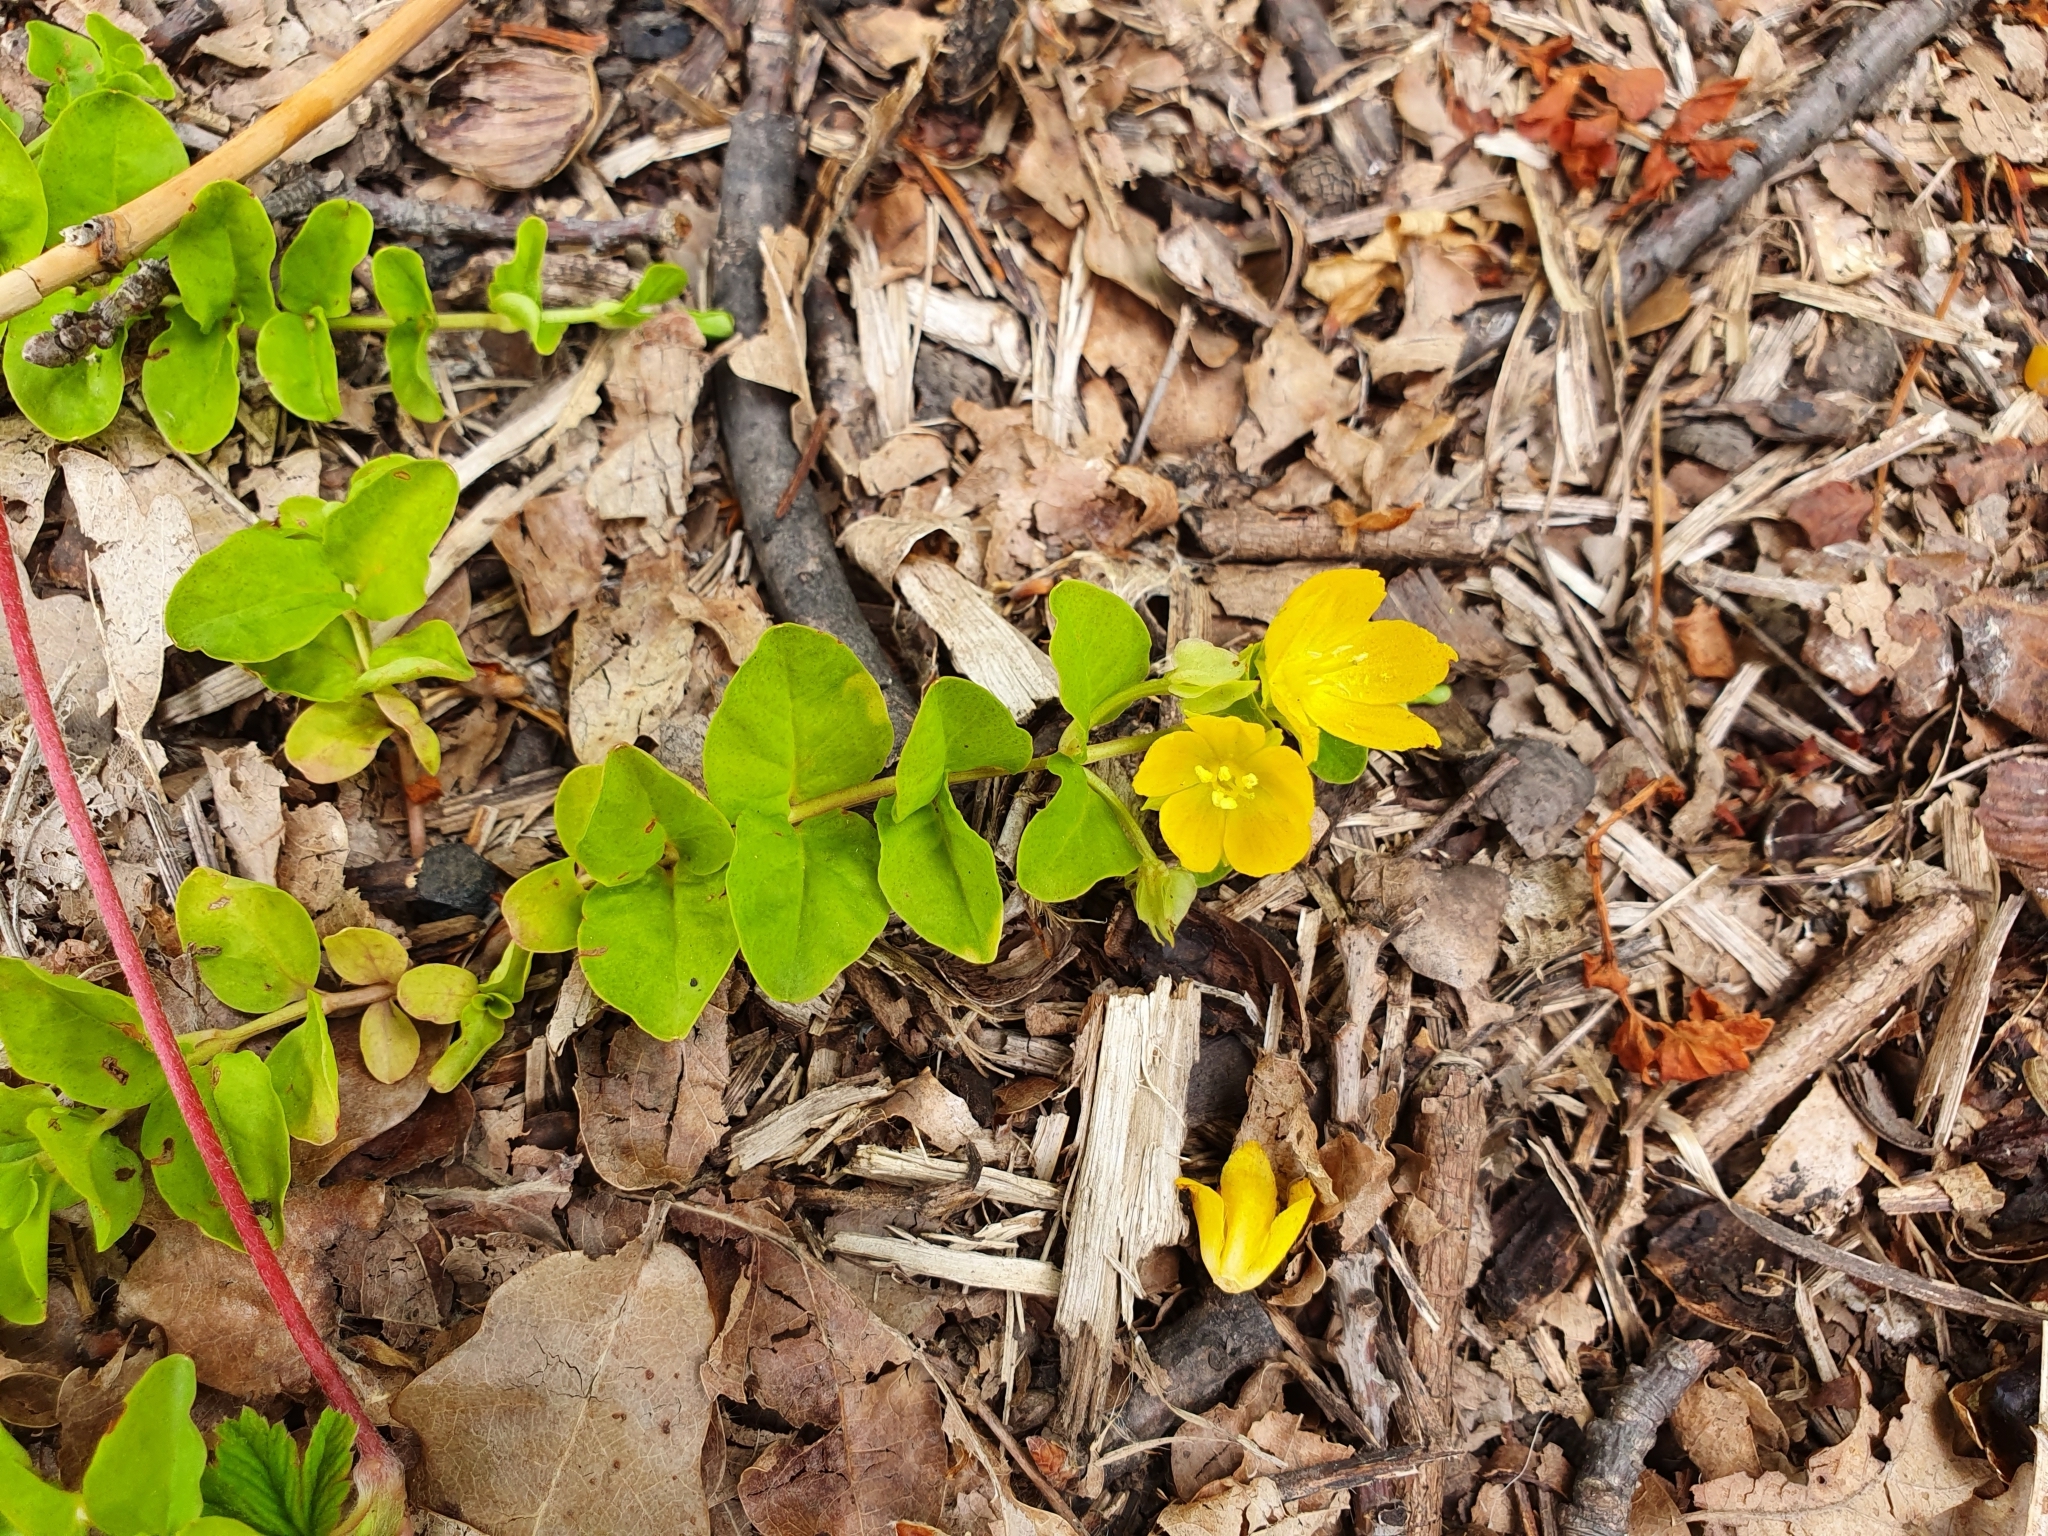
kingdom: Plantae
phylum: Tracheophyta
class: Magnoliopsida
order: Ericales
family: Primulaceae
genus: Lysimachia
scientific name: Lysimachia nummularia
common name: Moneywort
